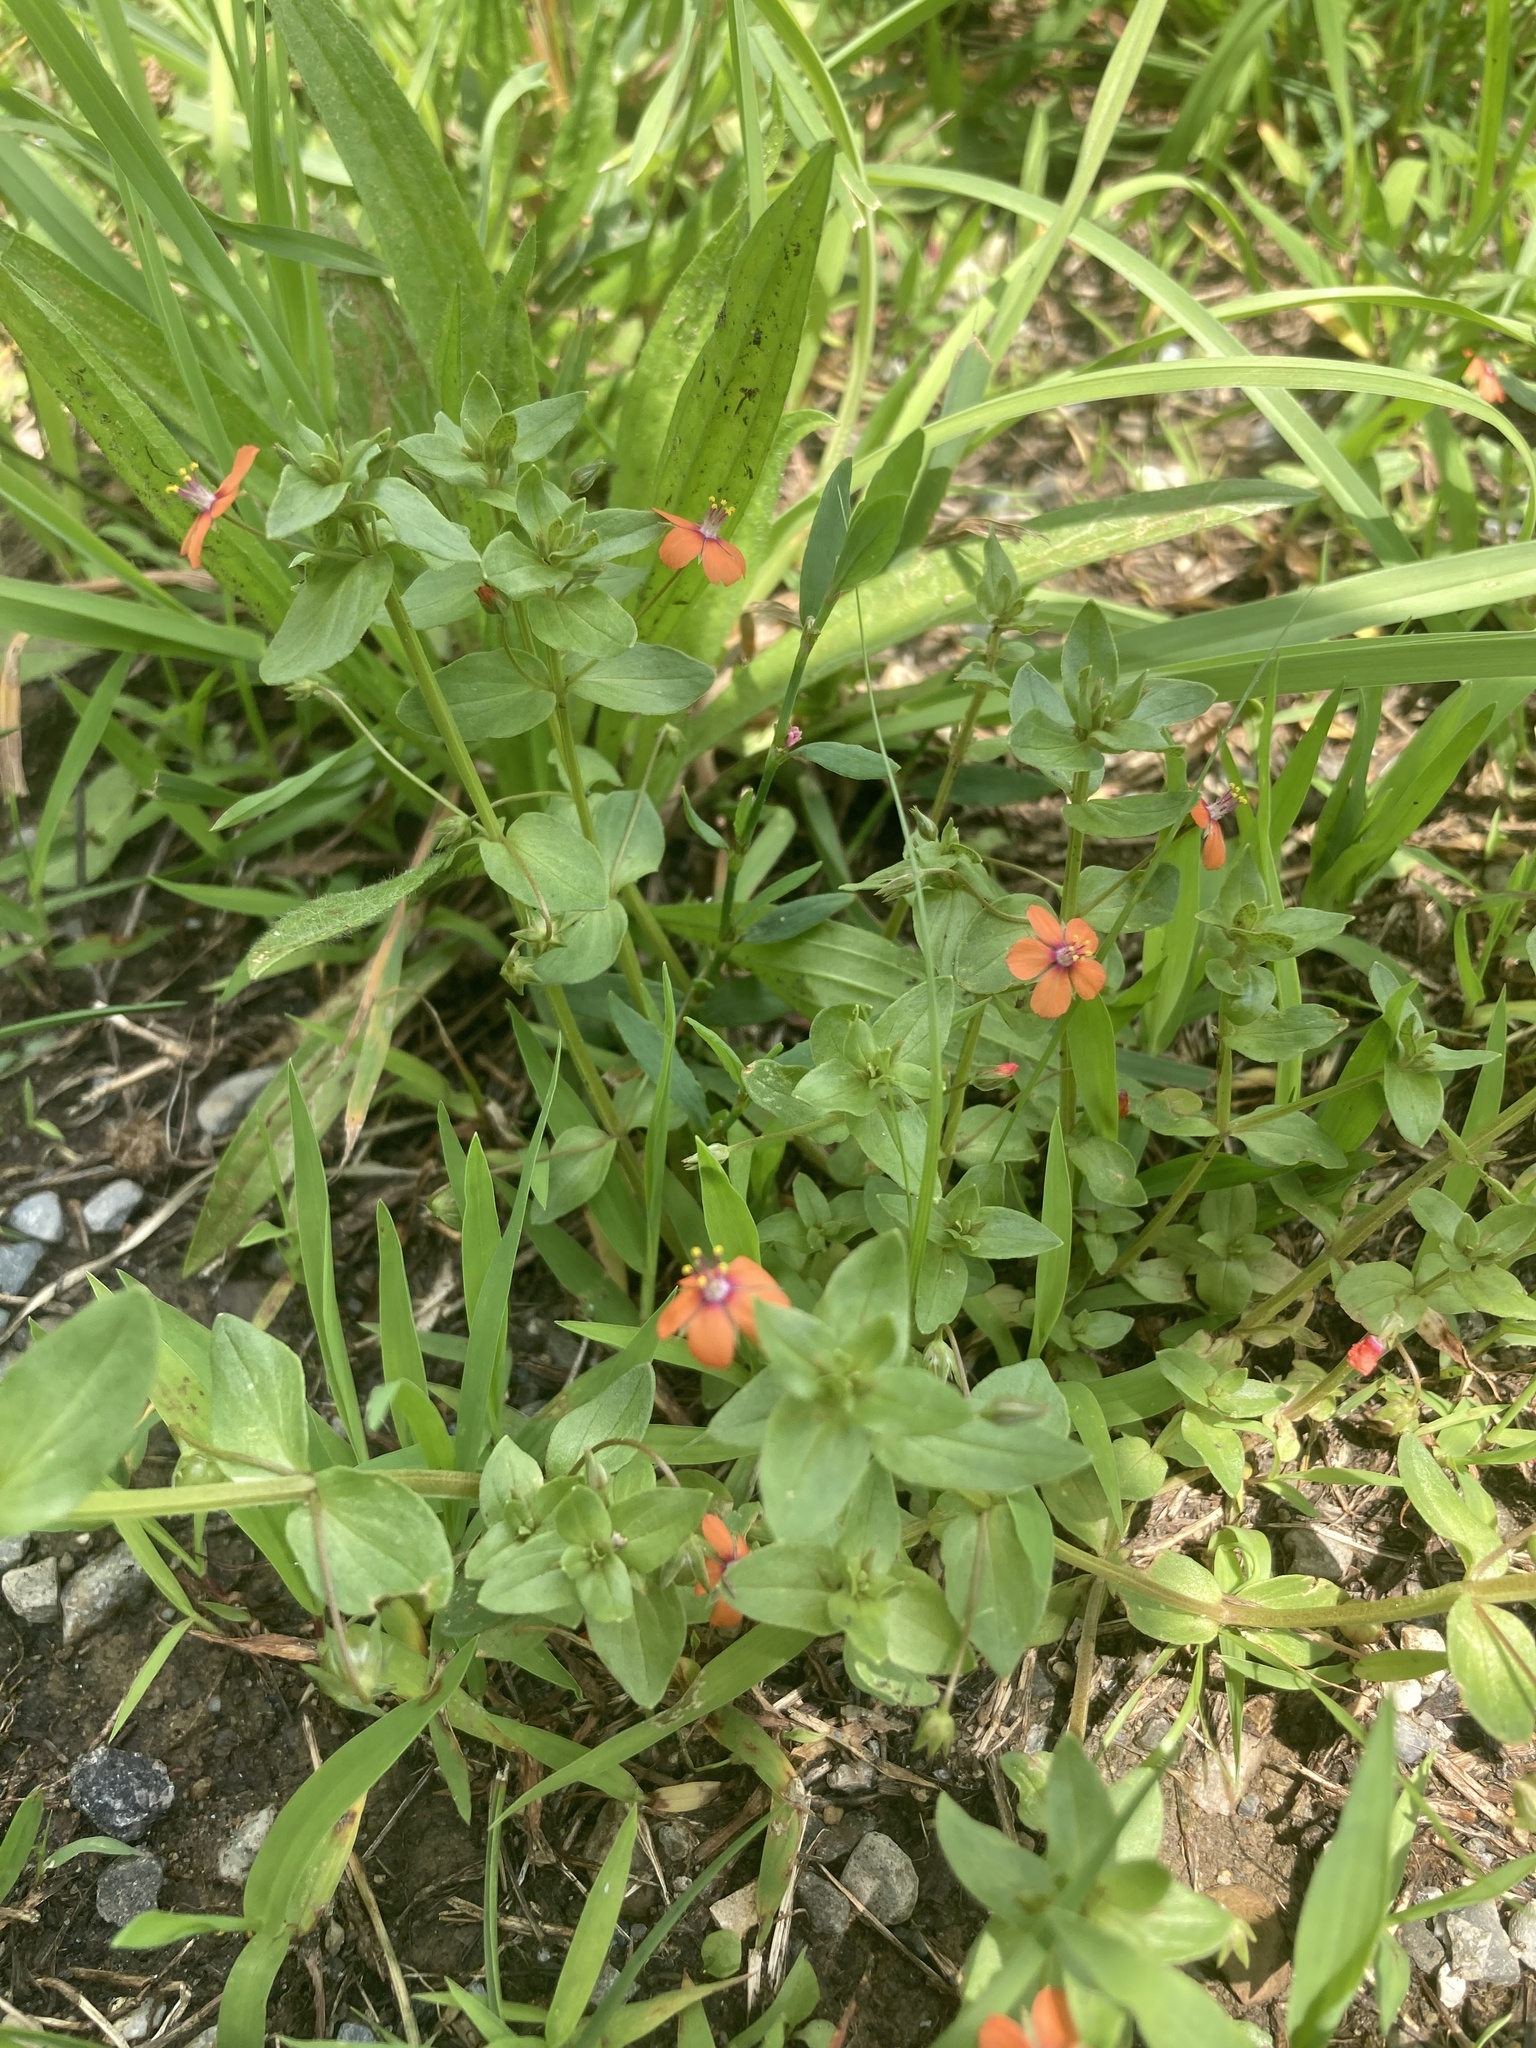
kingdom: Plantae
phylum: Tracheophyta
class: Magnoliopsida
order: Ericales
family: Primulaceae
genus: Lysimachia
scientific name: Lysimachia arvensis
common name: Scarlet pimpernel
